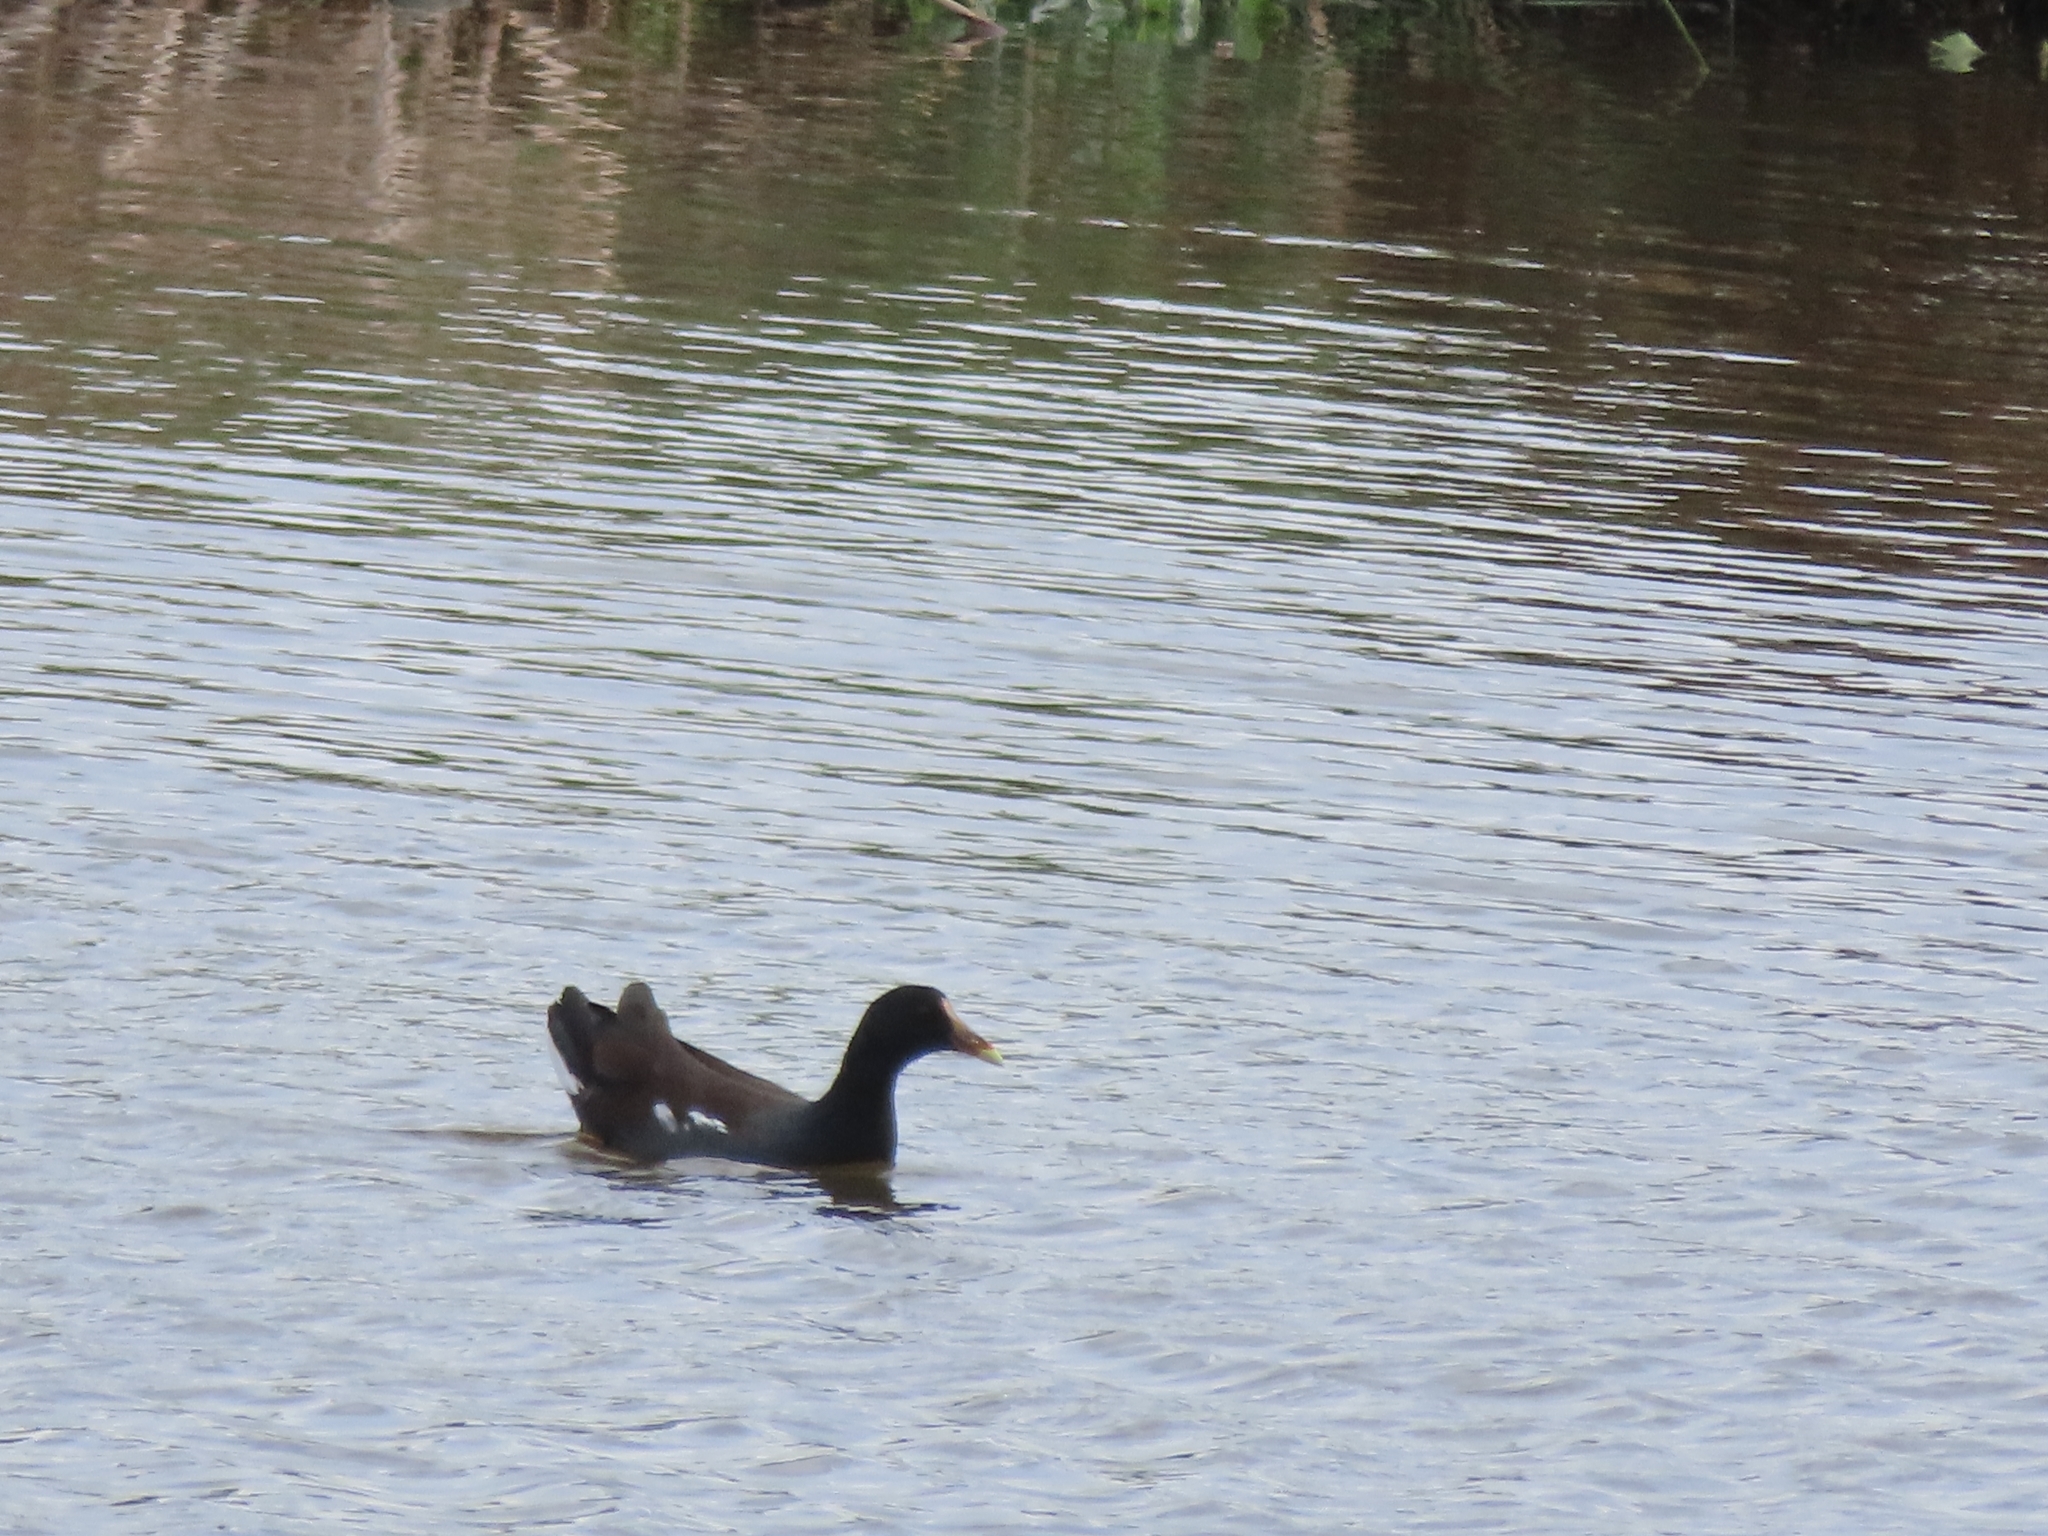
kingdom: Animalia
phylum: Chordata
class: Aves
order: Gruiformes
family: Rallidae
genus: Gallinula
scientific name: Gallinula chloropus
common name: Common moorhen
